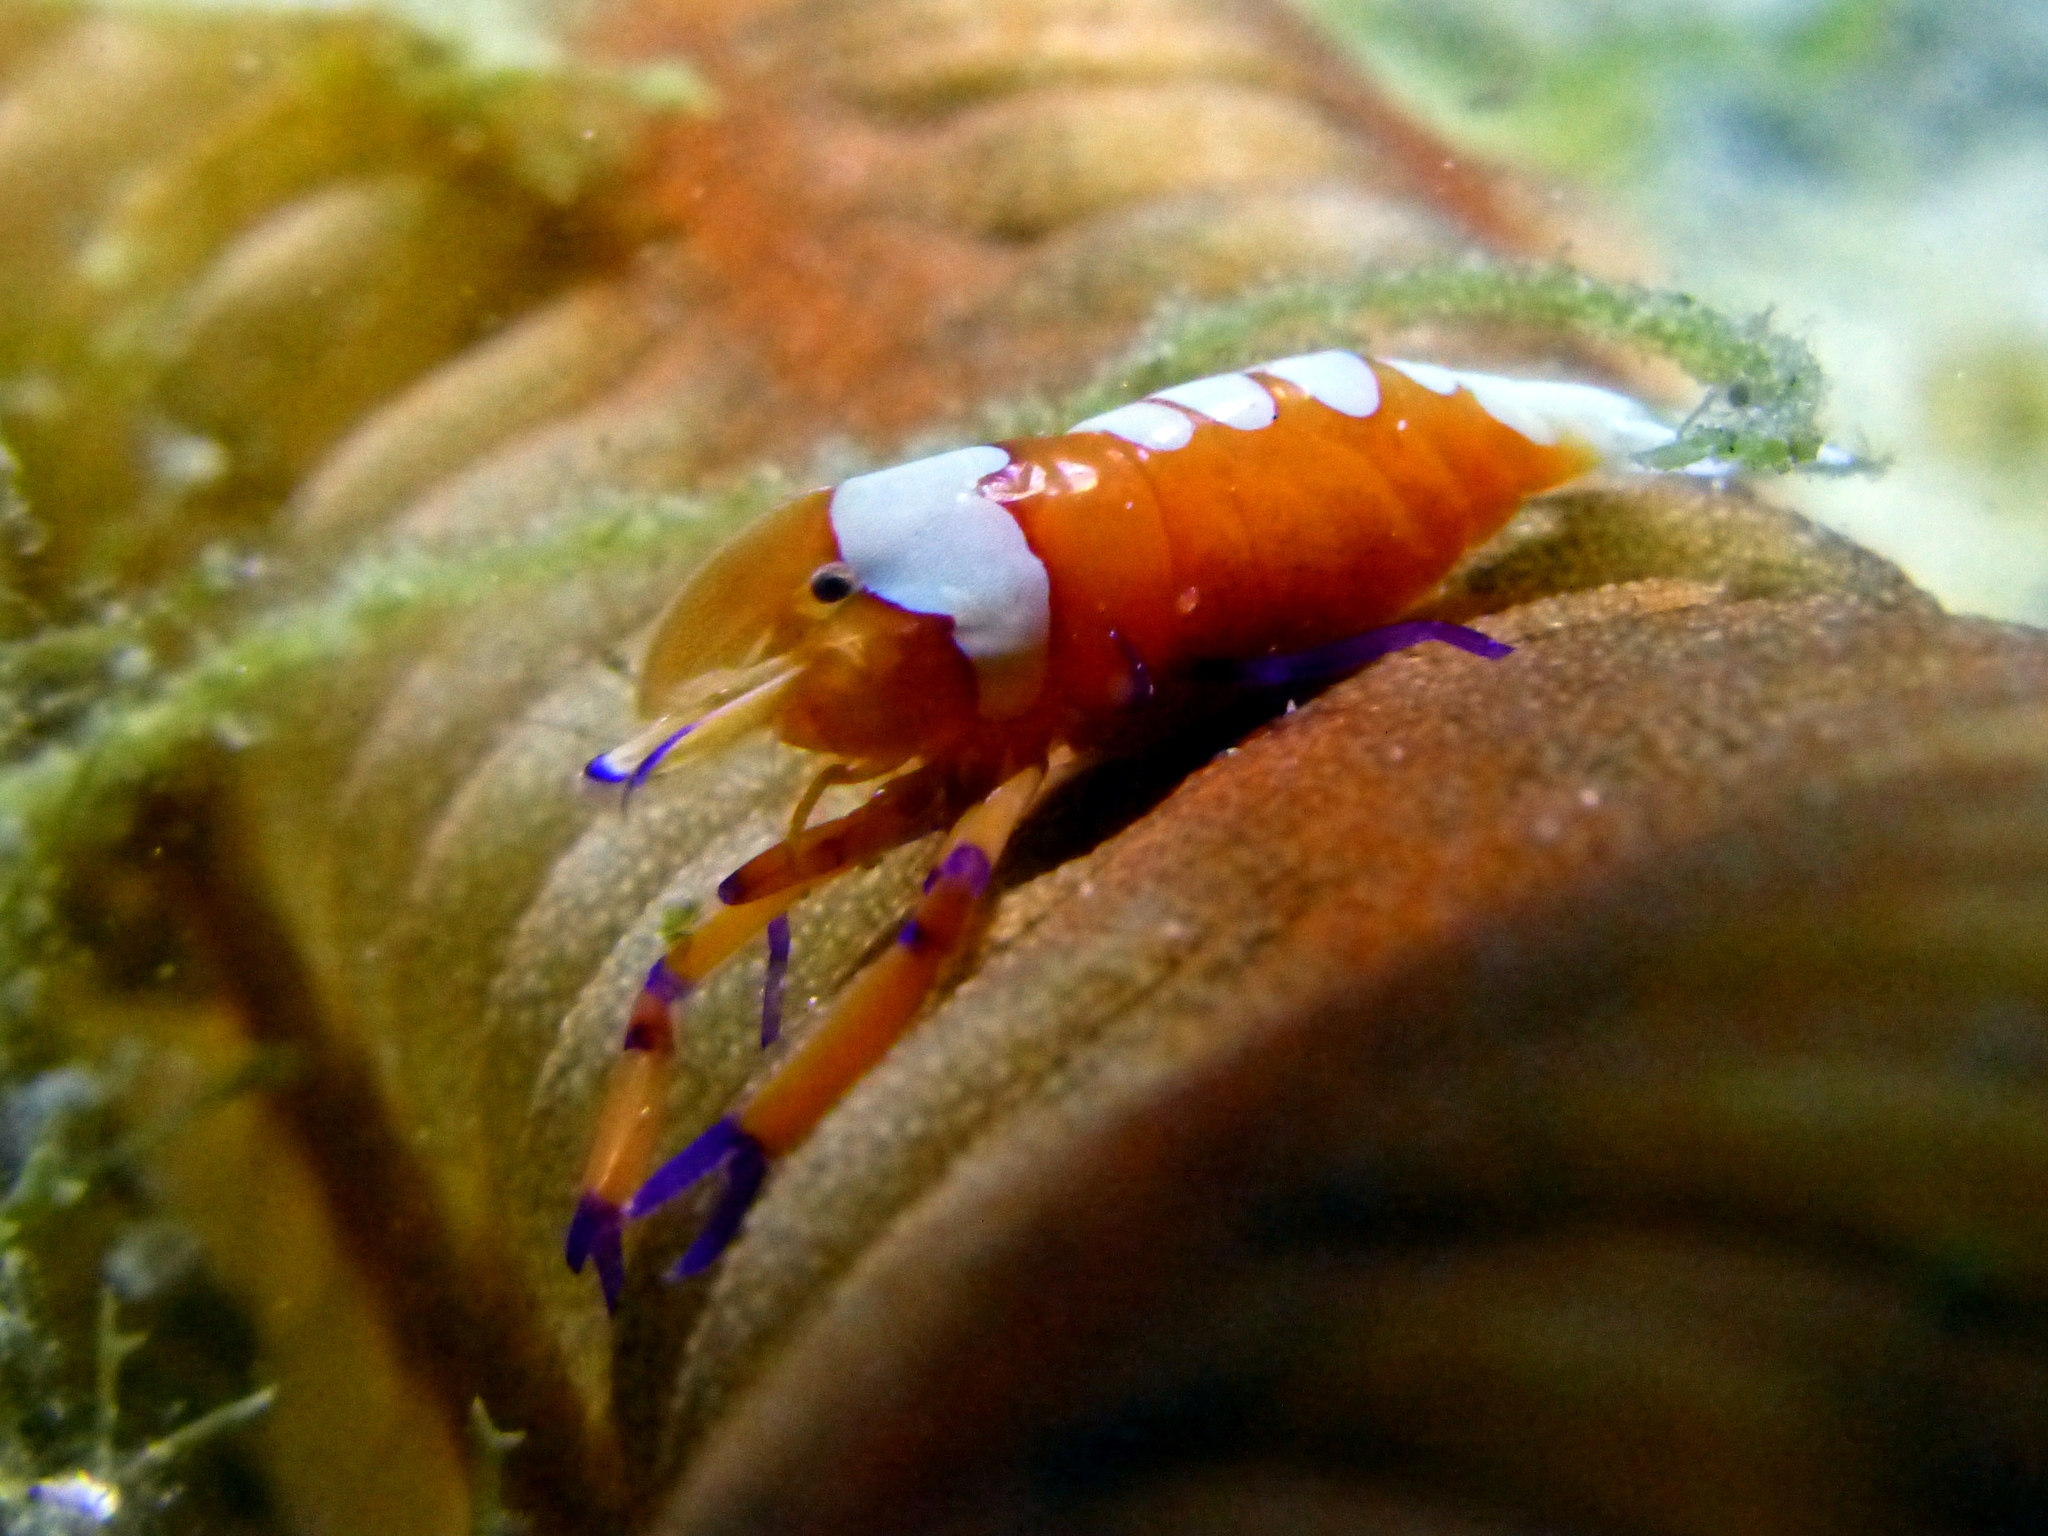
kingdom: Animalia
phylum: Arthropoda
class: Malacostraca
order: Decapoda
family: Palaemonidae
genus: Periclimenes
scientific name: Periclimenes rex
